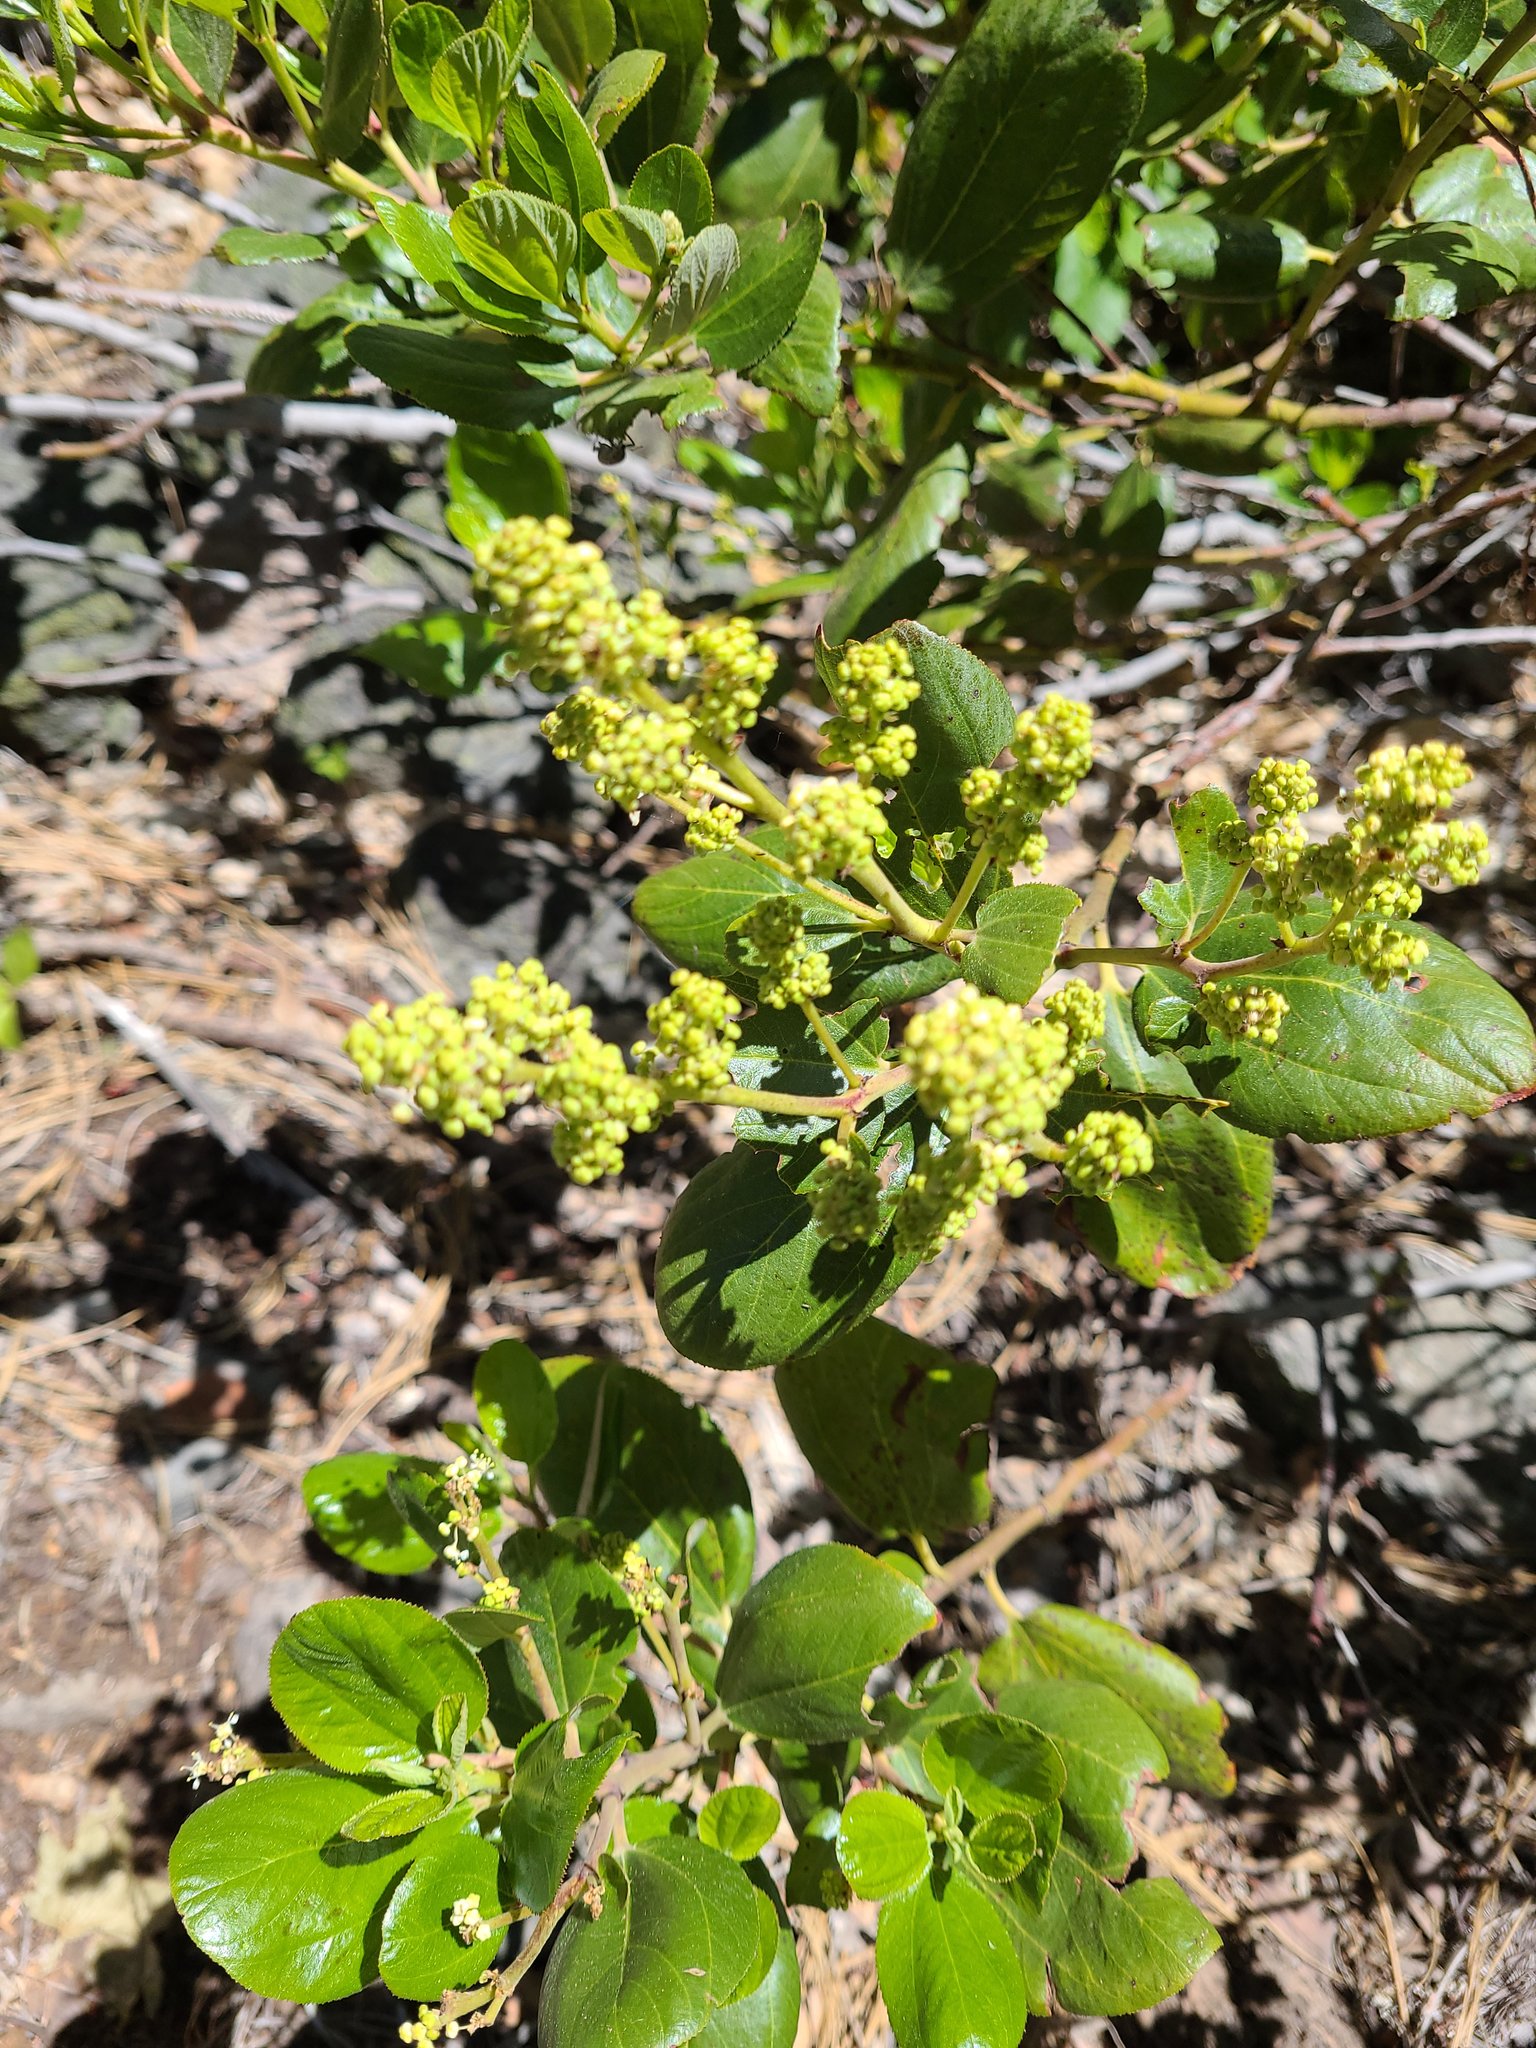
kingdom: Plantae
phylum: Tracheophyta
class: Magnoliopsida
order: Rosales
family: Rhamnaceae
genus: Ceanothus
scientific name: Ceanothus velutinus
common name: Snowbrush
